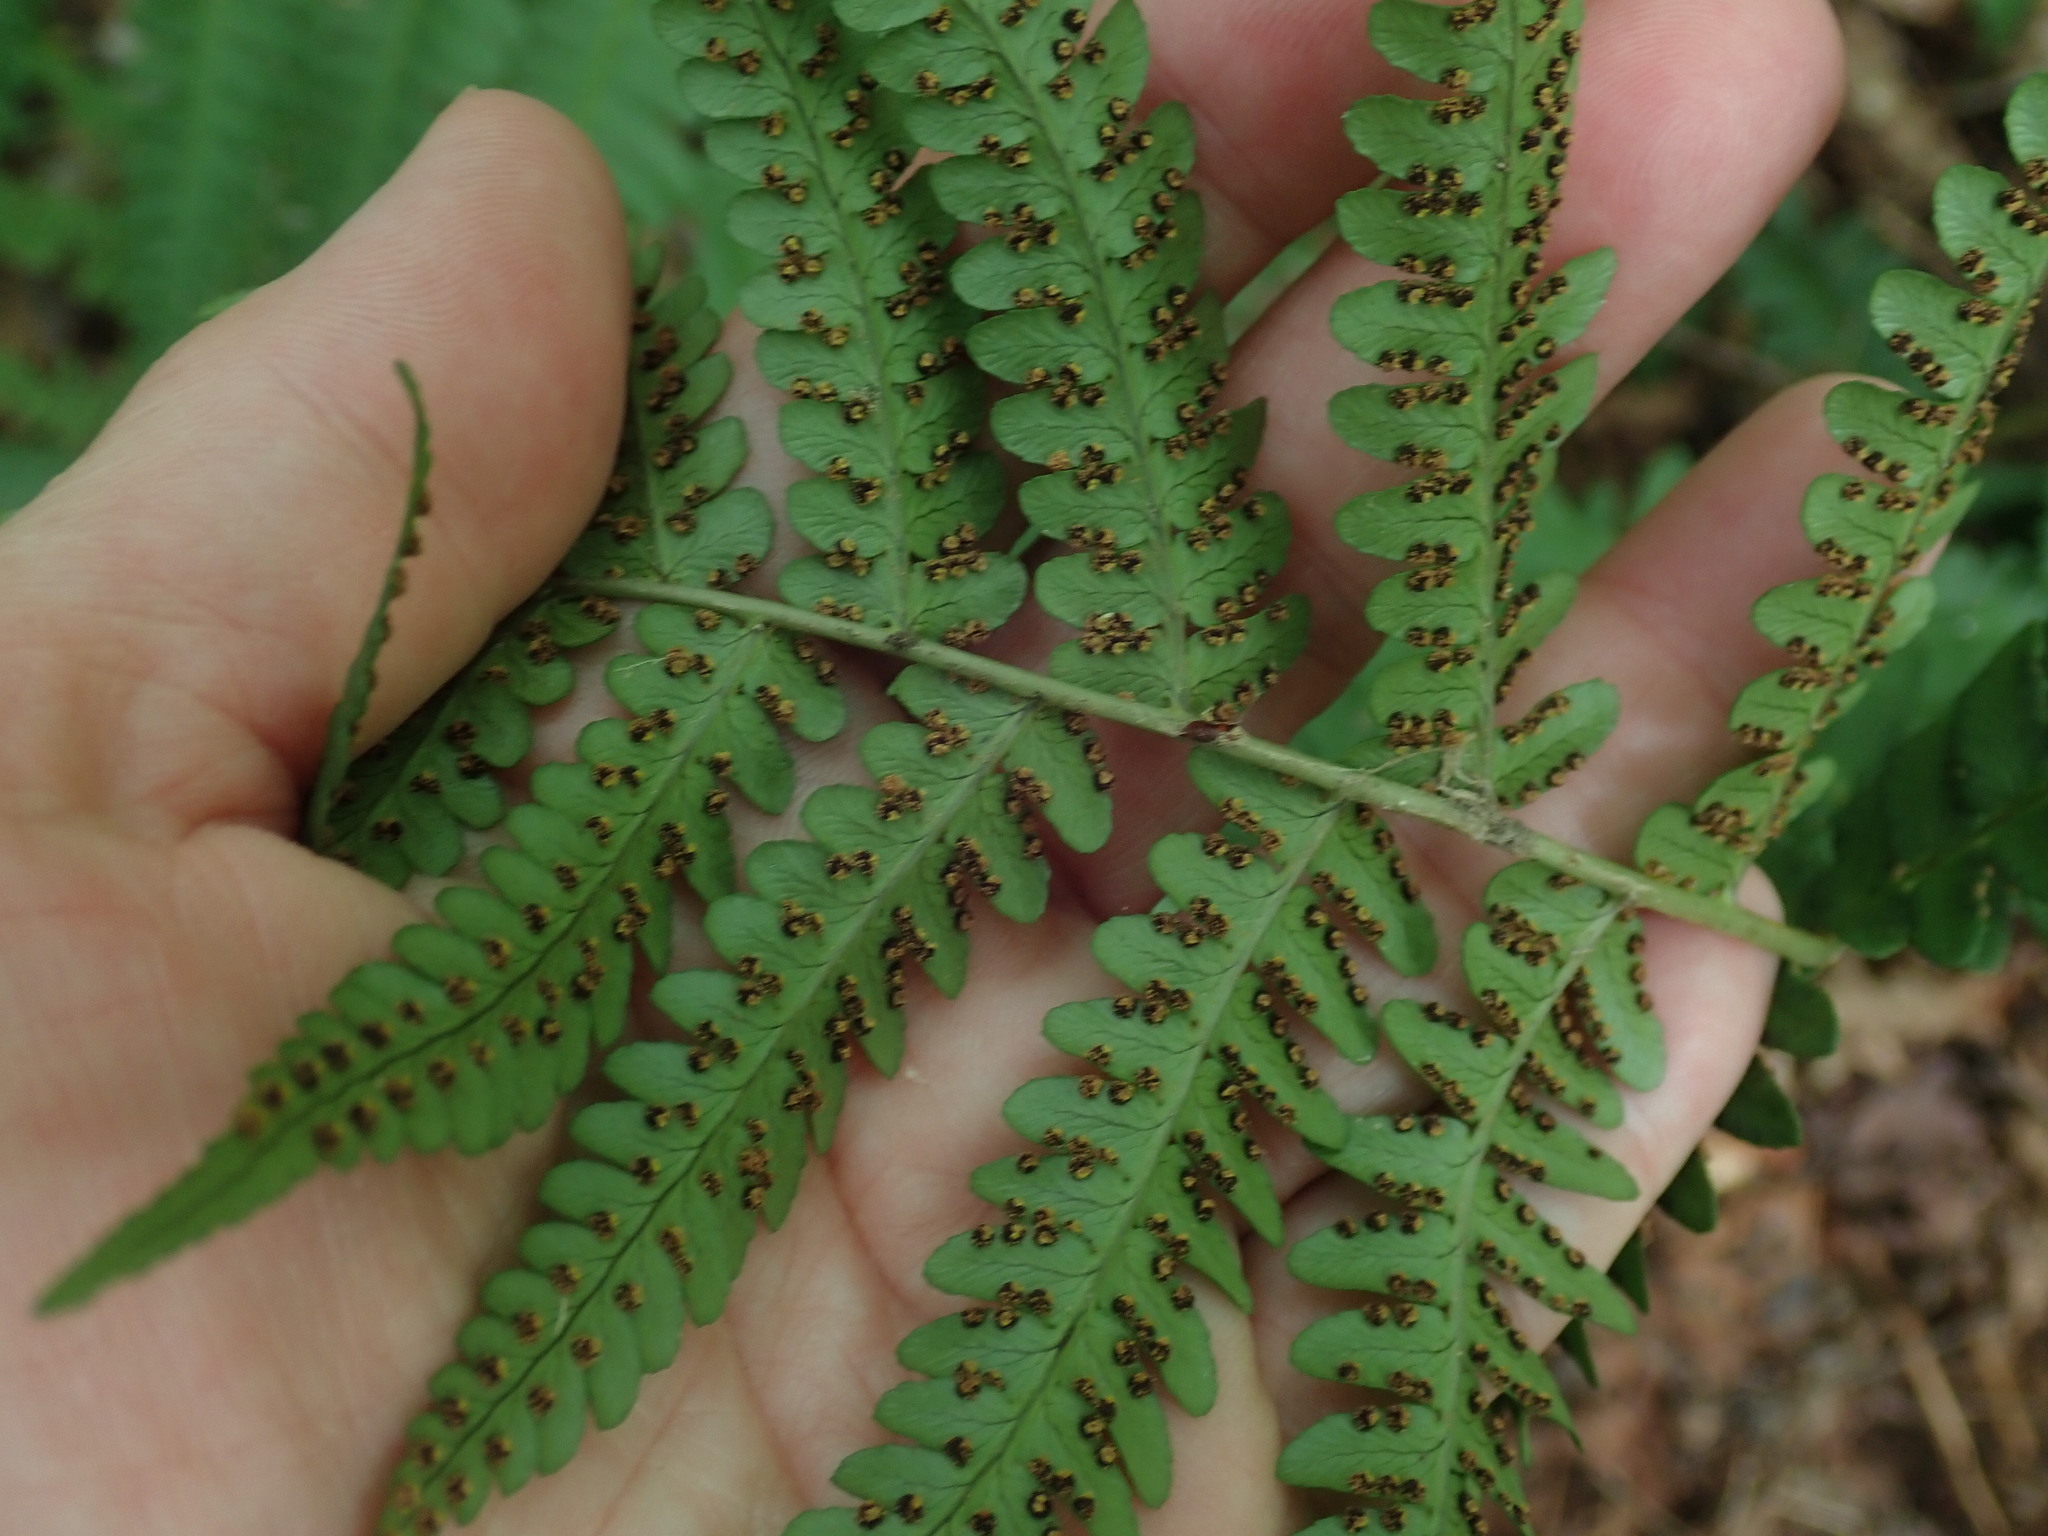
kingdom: Plantae
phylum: Tracheophyta
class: Polypodiopsida
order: Polypodiales
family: Dryopteridaceae
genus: Dryopteris
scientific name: Dryopteris marginalis
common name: Marginal wood fern
